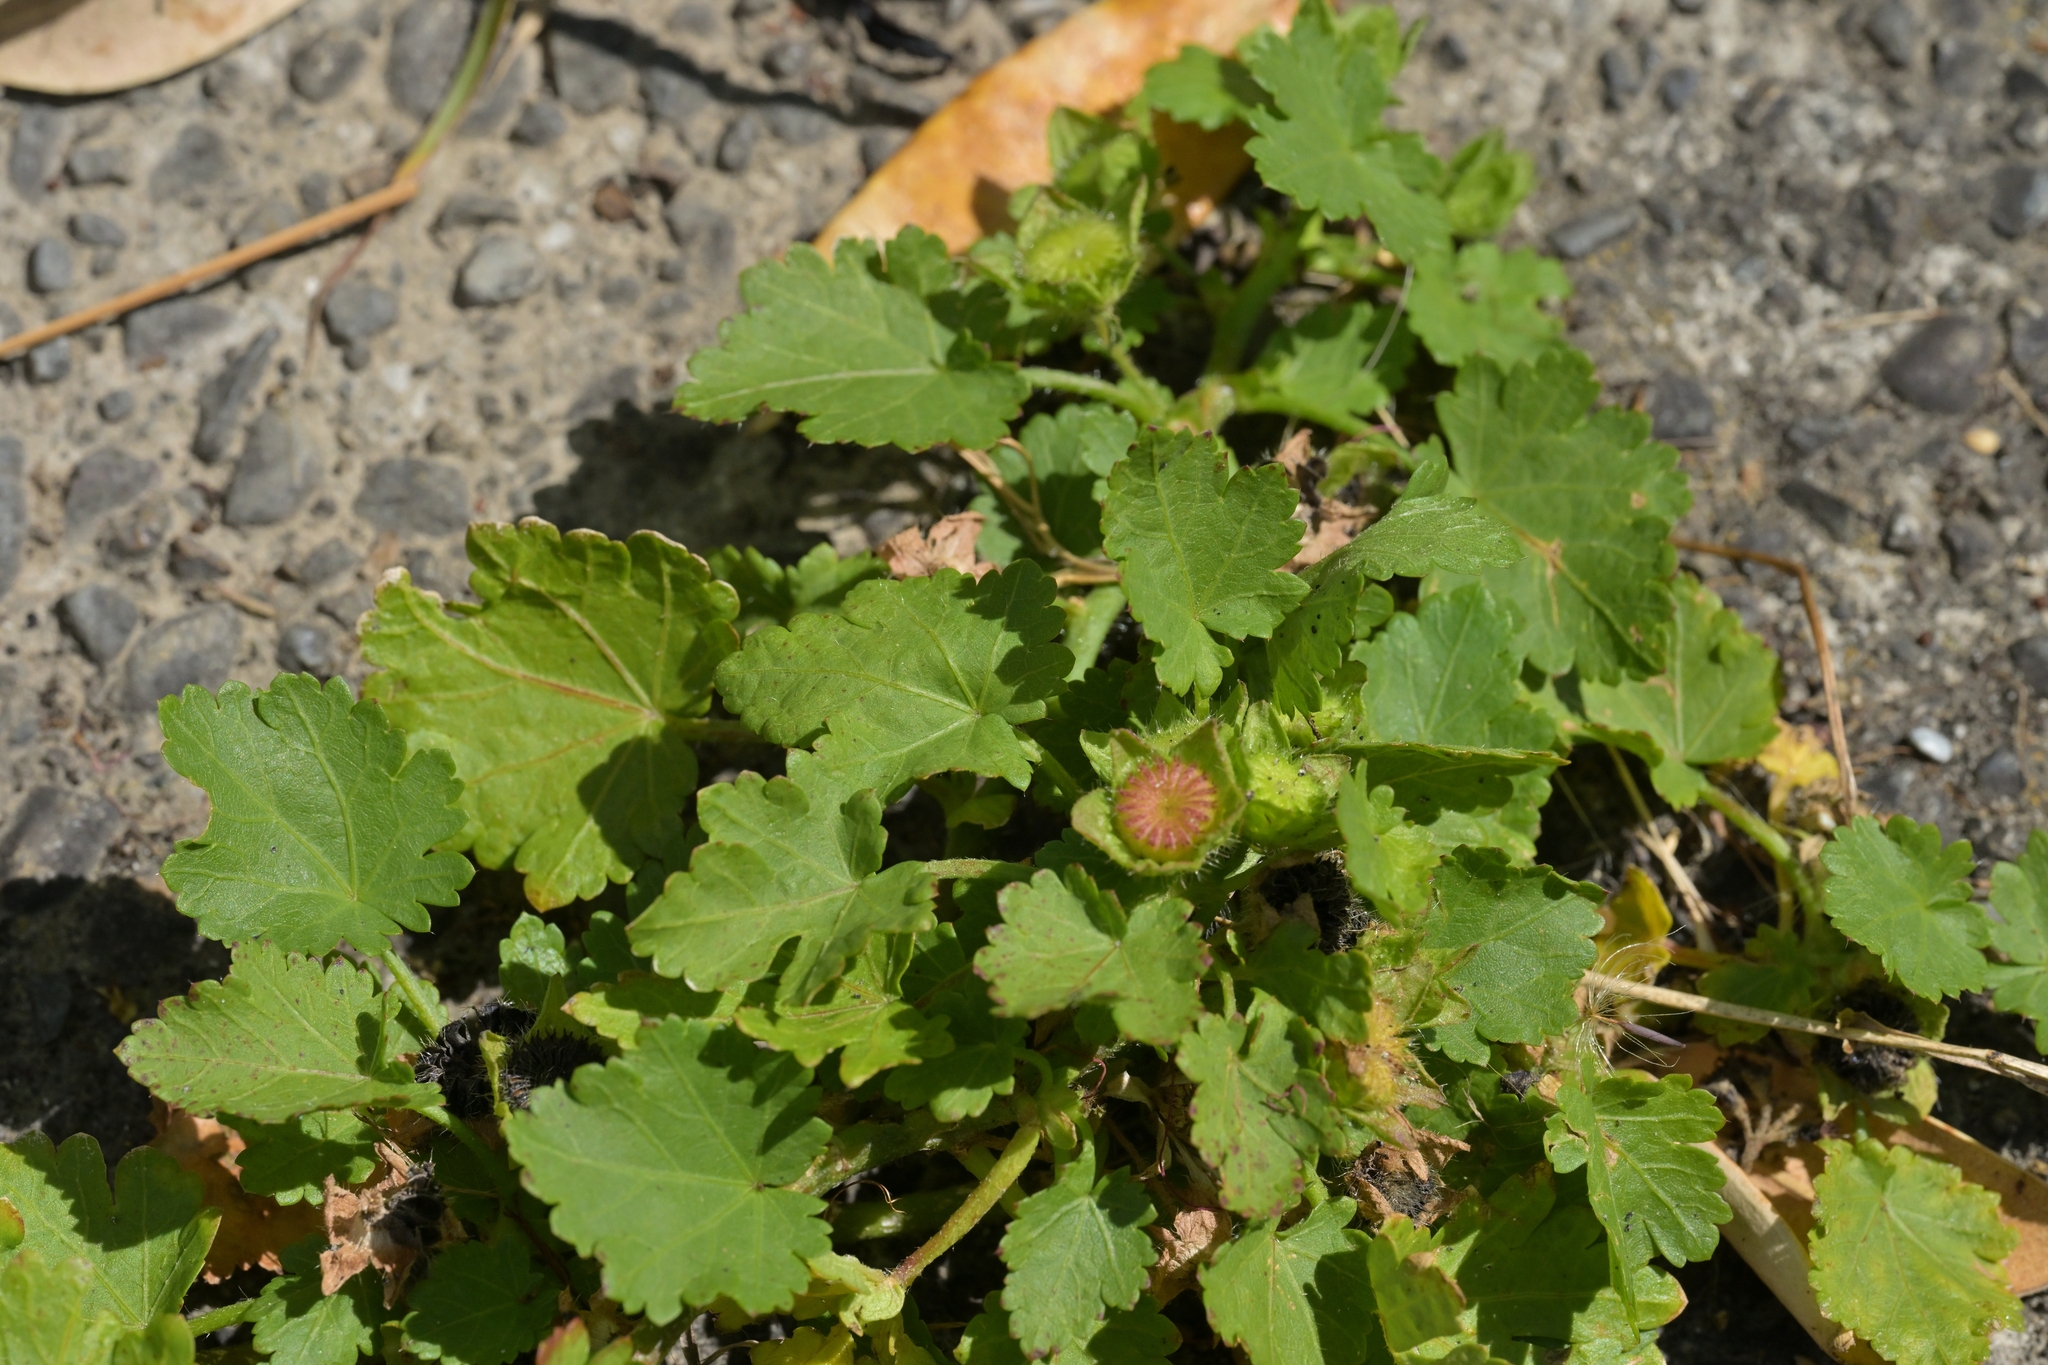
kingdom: Plantae
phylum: Tracheophyta
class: Magnoliopsida
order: Malvales
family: Malvaceae
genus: Modiola
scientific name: Modiola caroliniana
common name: Carolina bristlemallow
